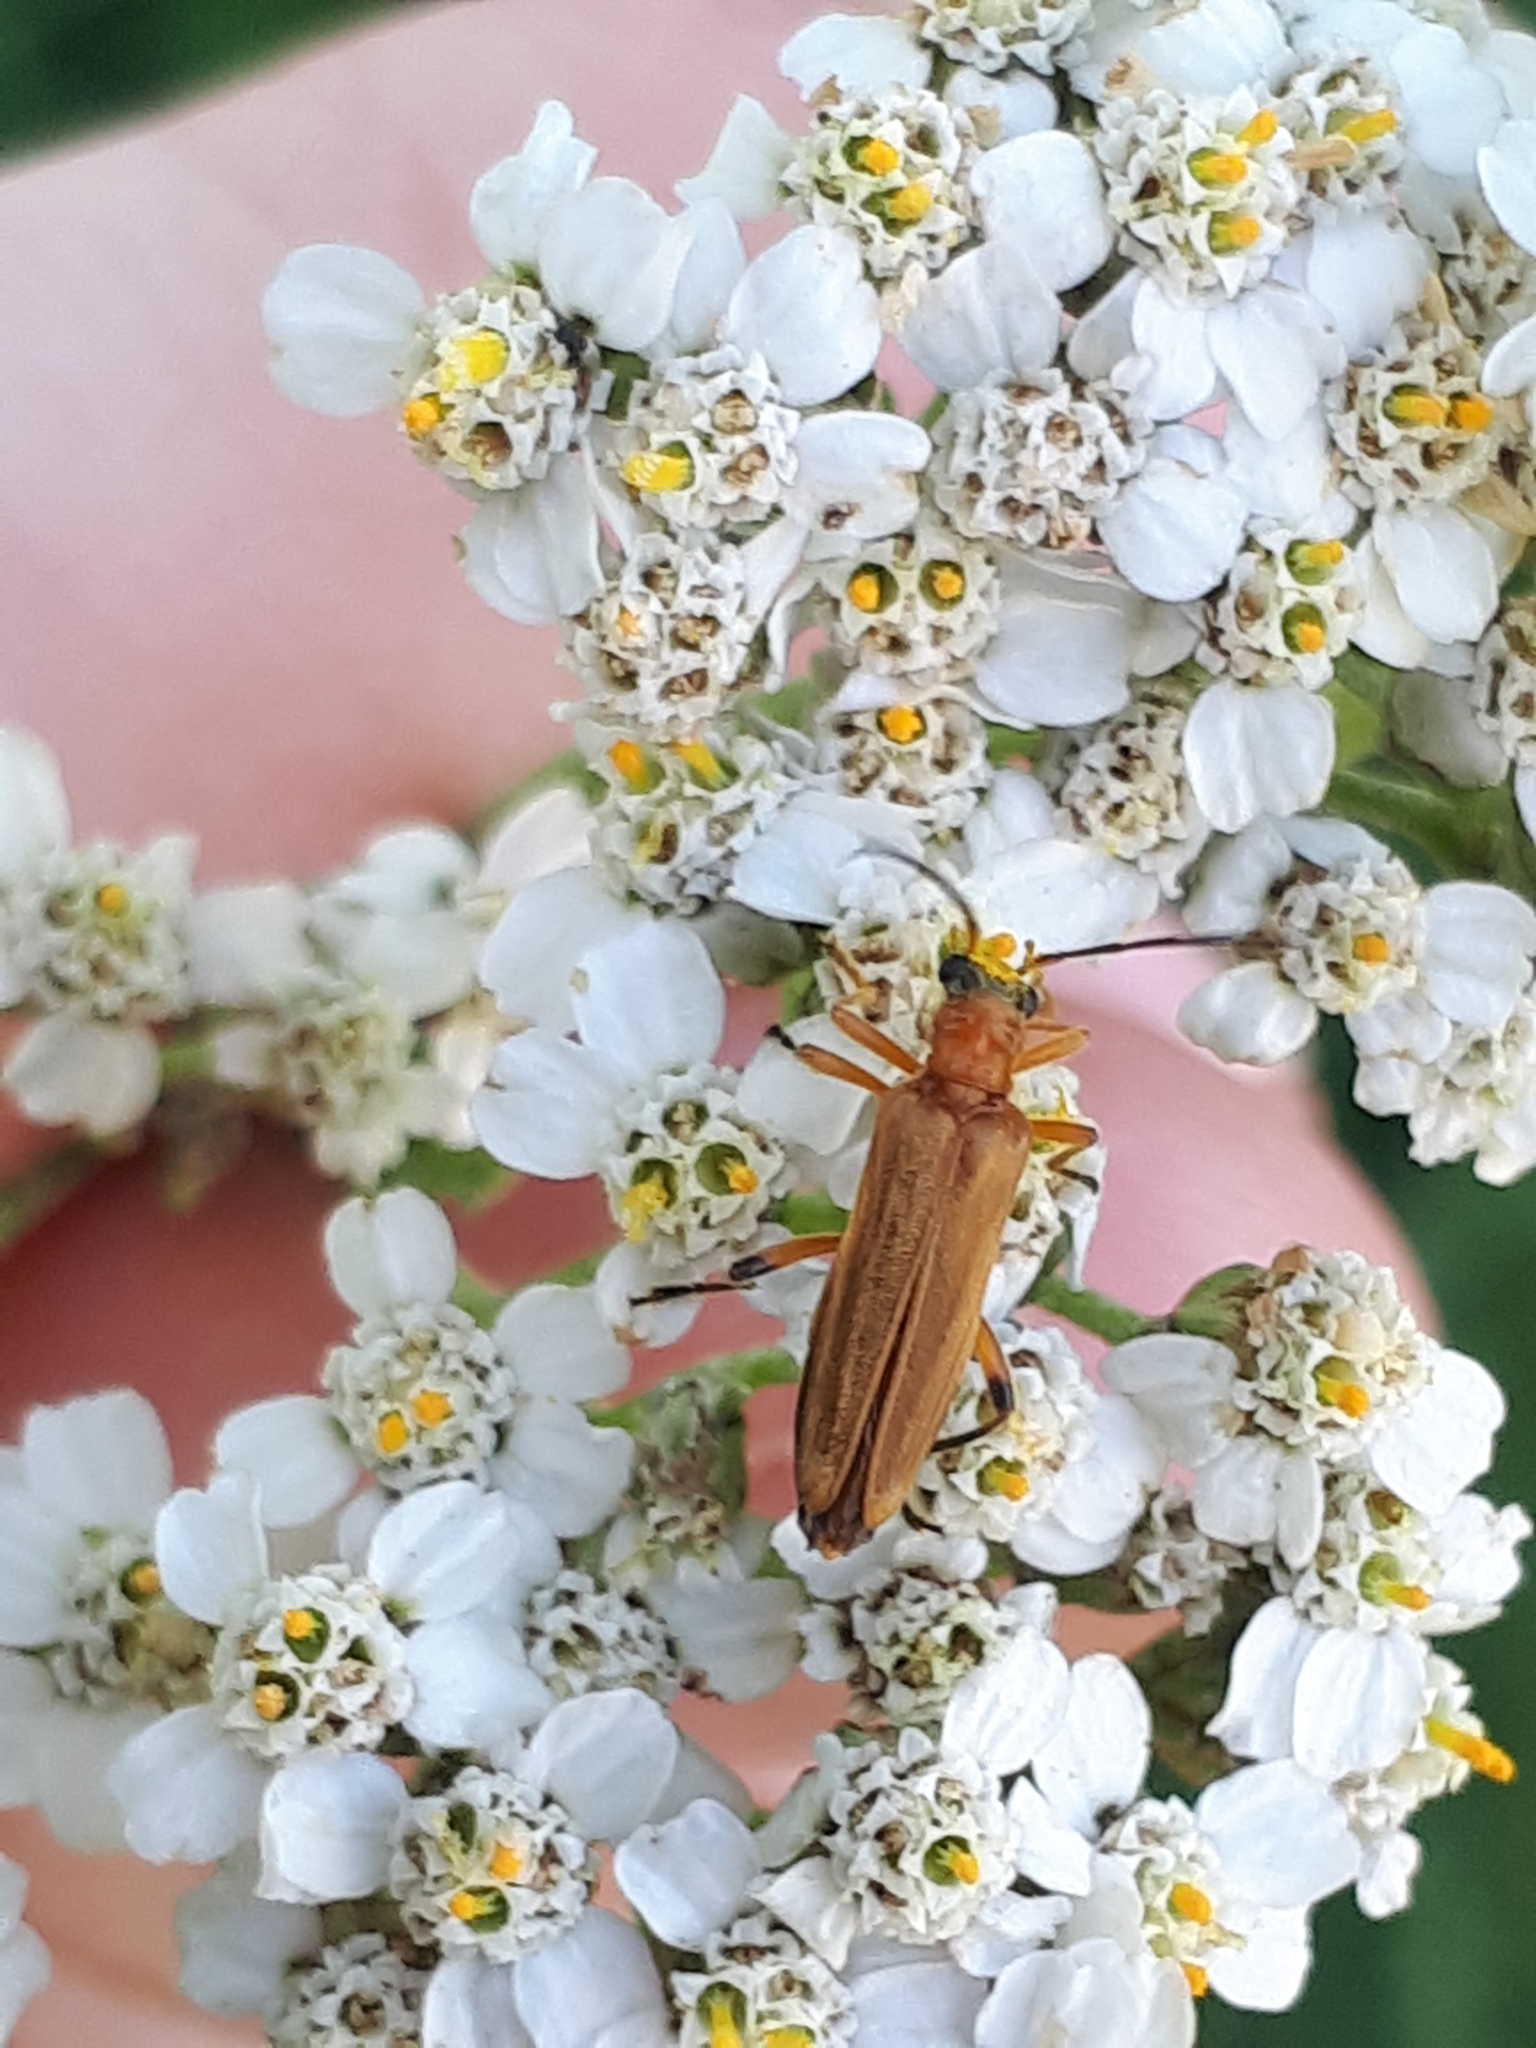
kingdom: Animalia
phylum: Arthropoda
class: Insecta
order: Coleoptera
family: Oedemeridae
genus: Oedemera
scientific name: Oedemera podagrariae
